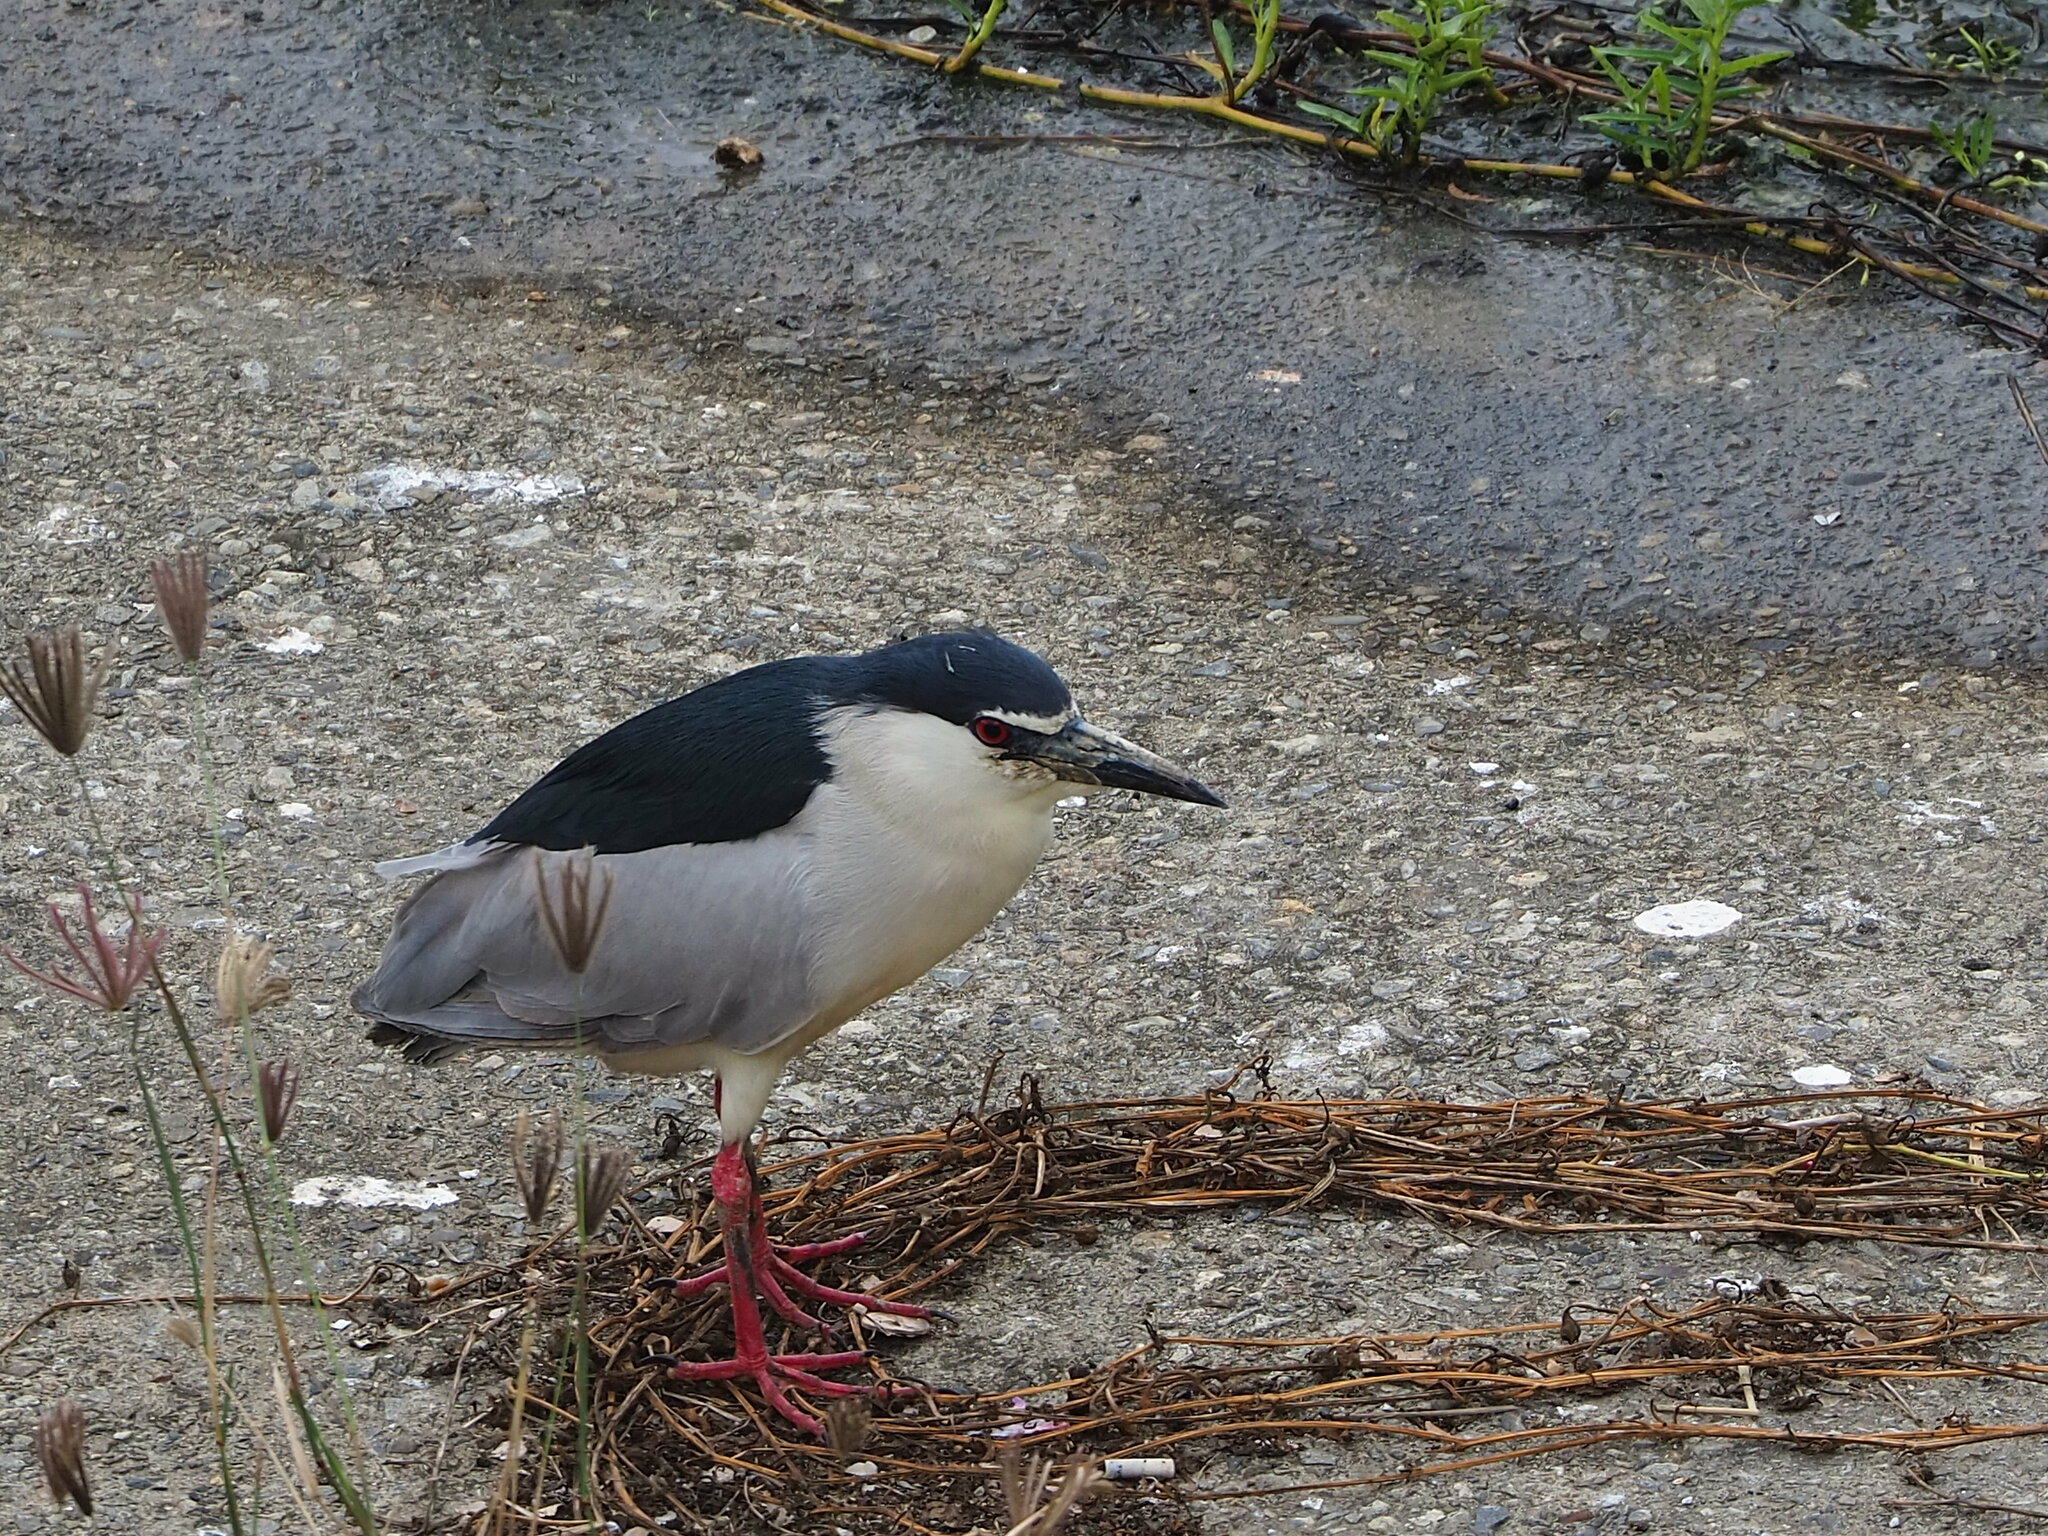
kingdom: Animalia
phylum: Chordata
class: Aves
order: Pelecaniformes
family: Ardeidae
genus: Nycticorax
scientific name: Nycticorax nycticorax
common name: Black-crowned night heron
